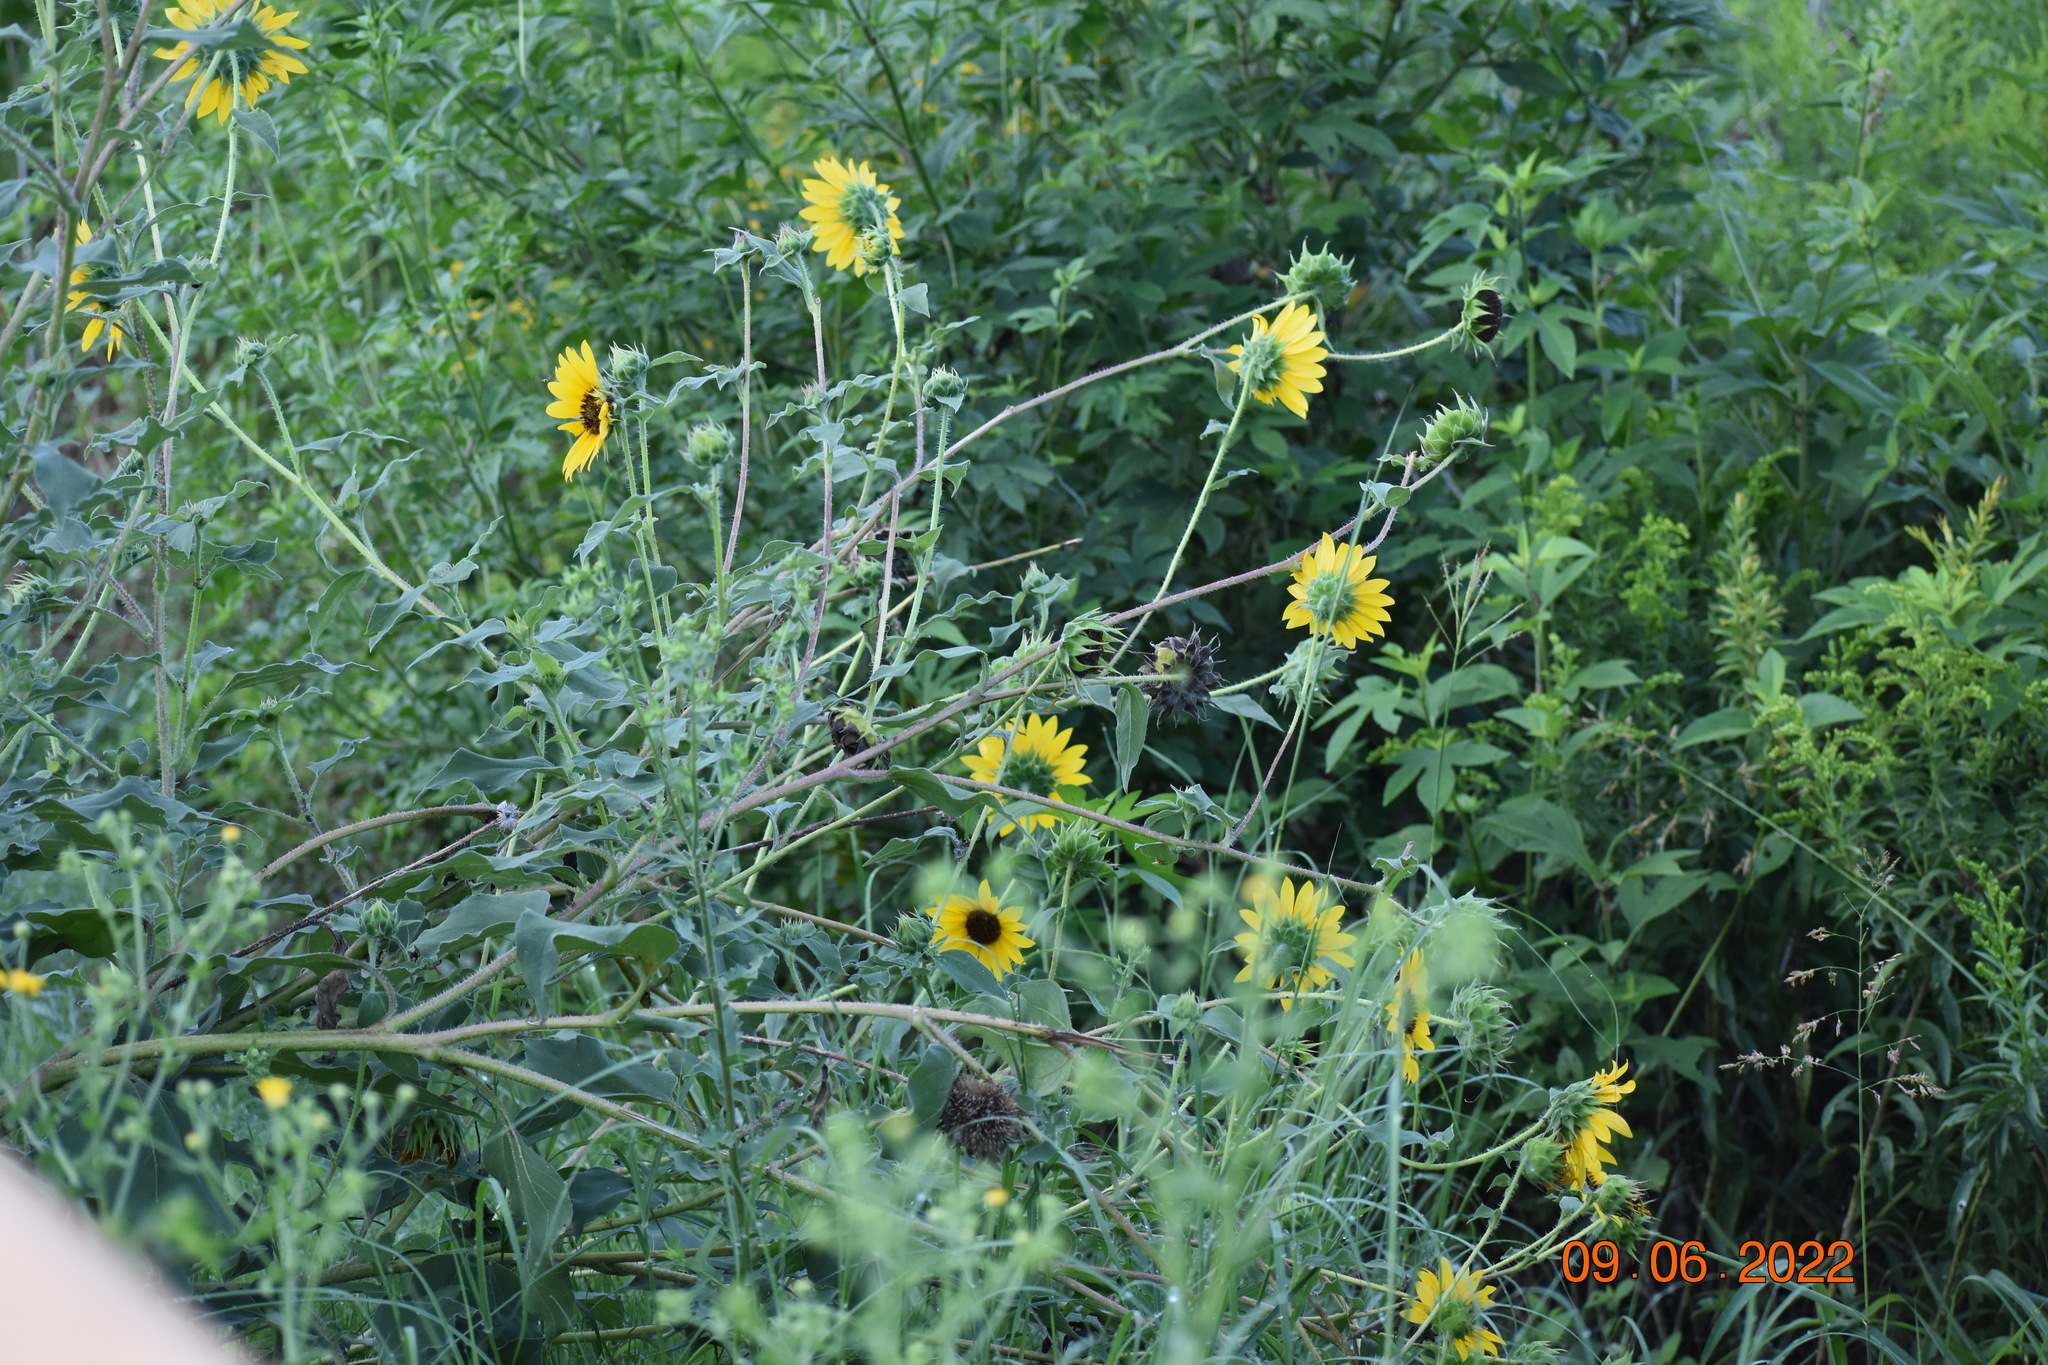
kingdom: Plantae
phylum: Tracheophyta
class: Magnoliopsida
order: Asterales
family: Asteraceae
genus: Helianthus
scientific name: Helianthus annuus
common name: Sunflower
